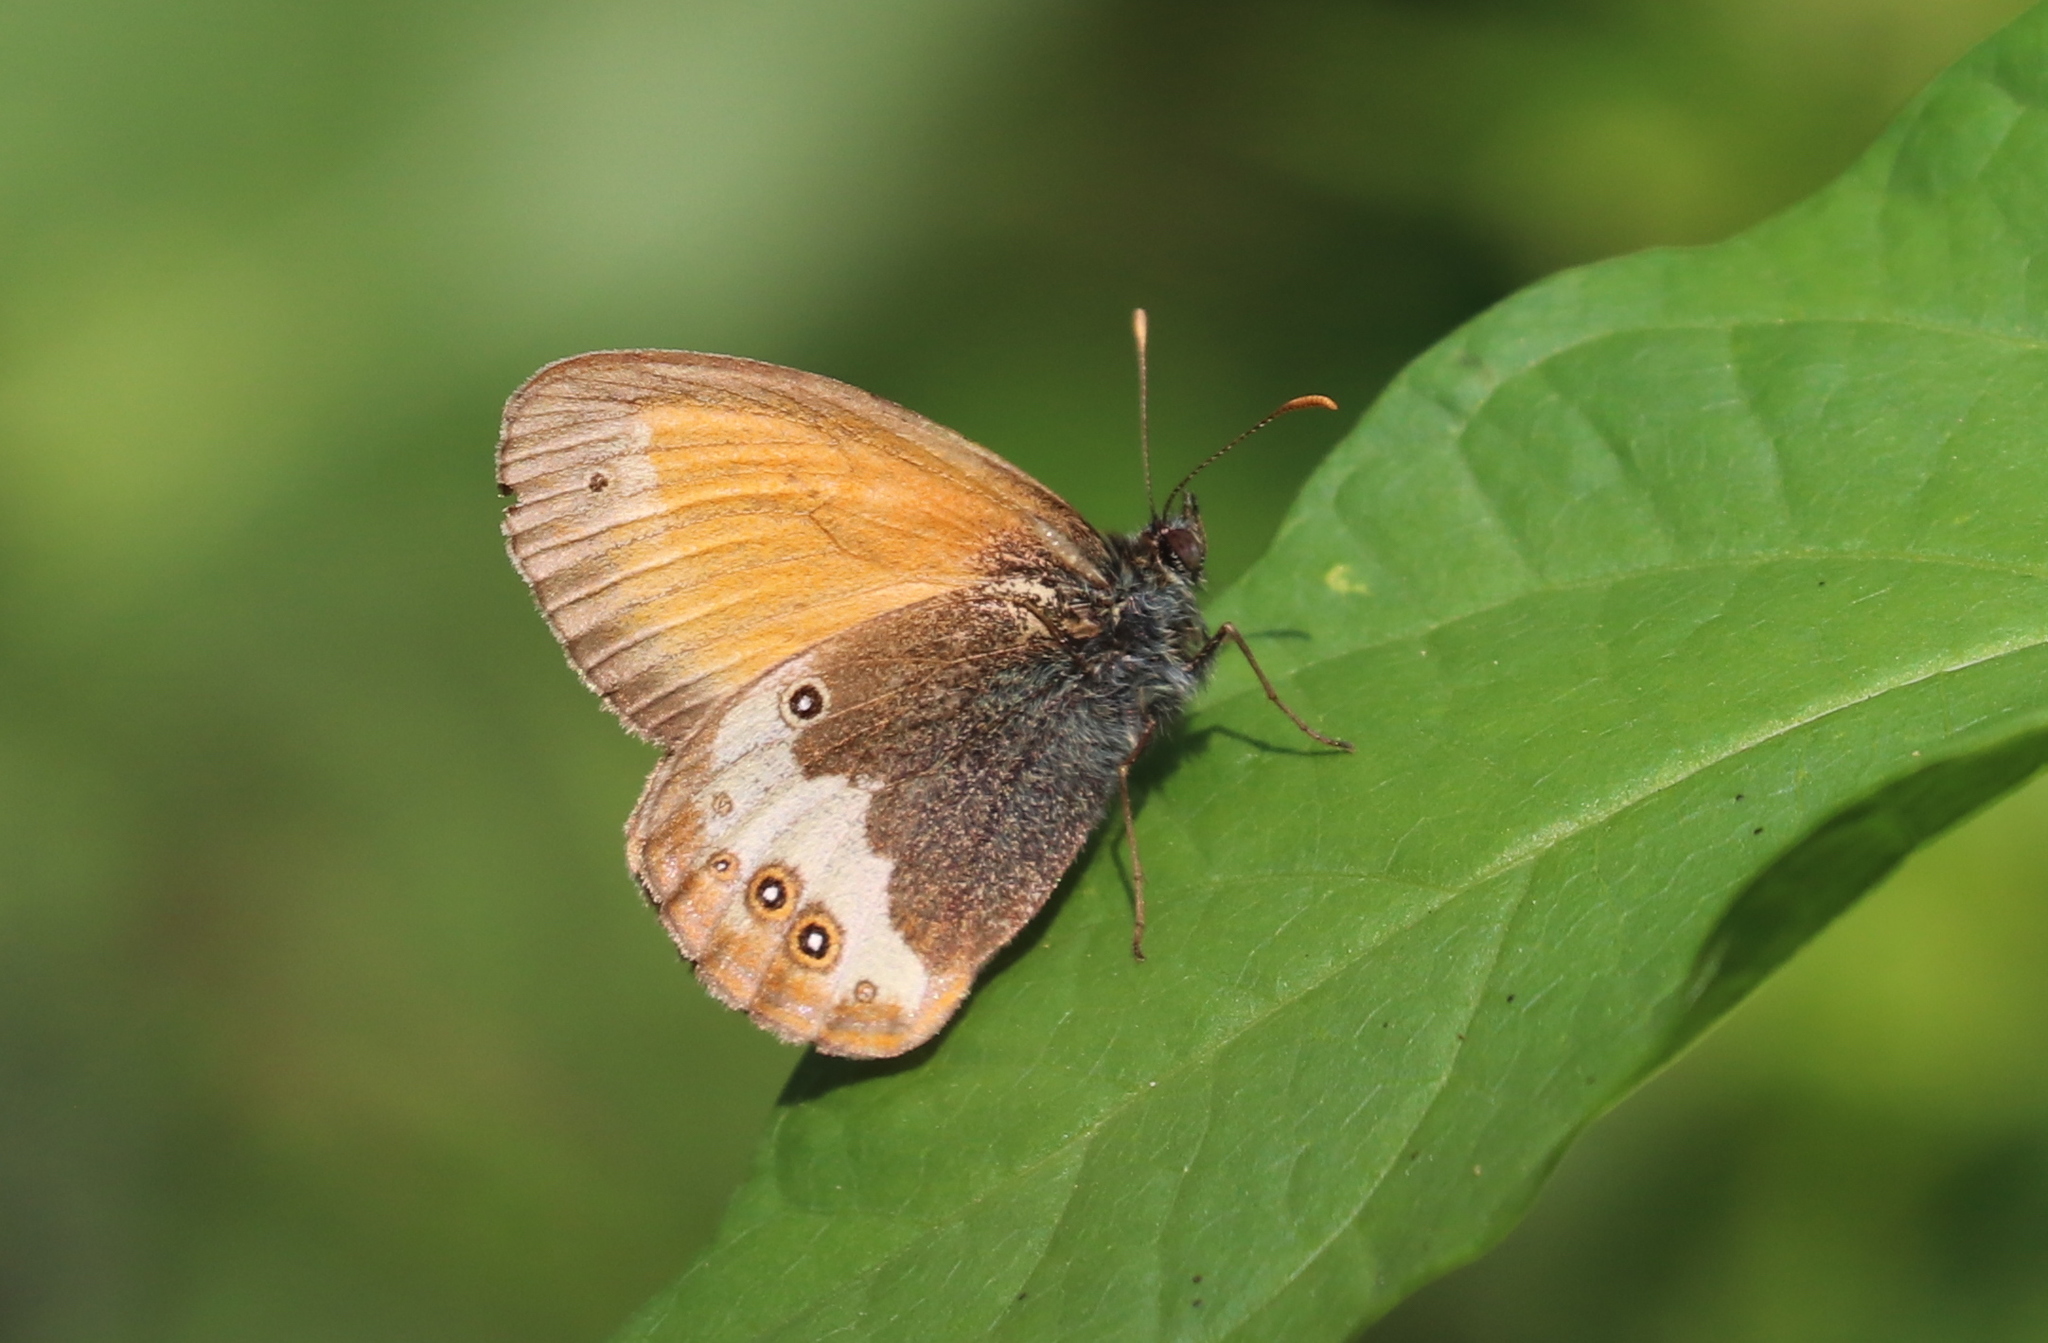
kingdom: Animalia
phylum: Arthropoda
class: Insecta
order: Lepidoptera
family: Nymphalidae
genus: Coenonympha
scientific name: Coenonympha arcania
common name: Pearly heath
